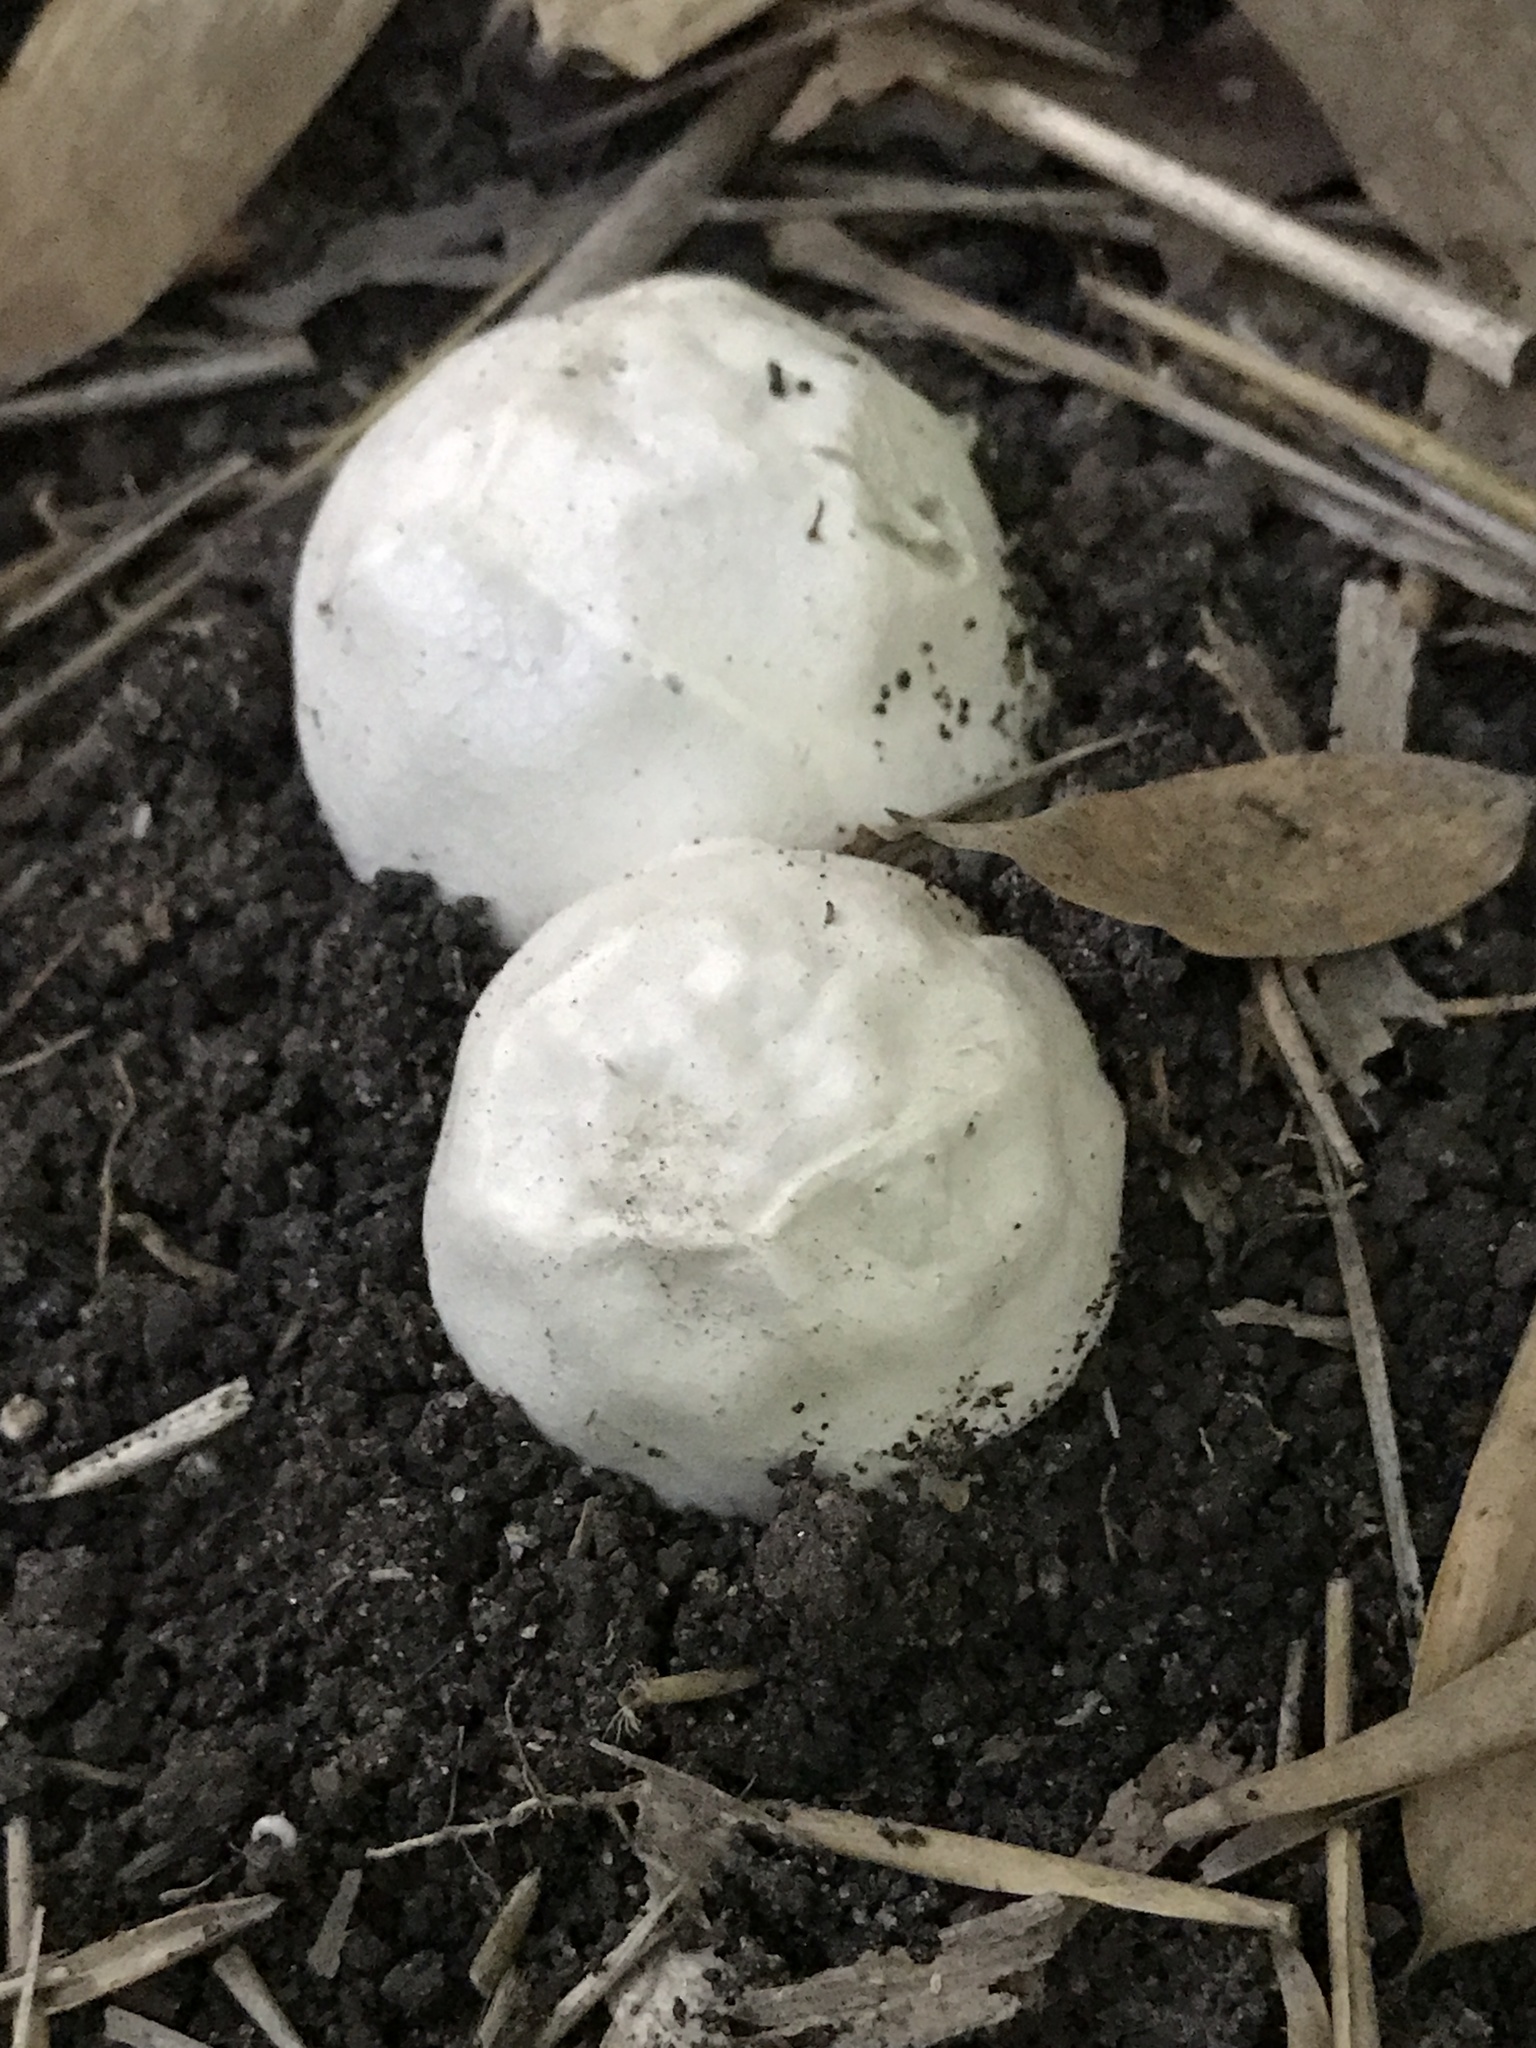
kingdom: Fungi
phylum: Basidiomycota
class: Agaricomycetes
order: Phallales
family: Phallaceae
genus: Lysurus
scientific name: Lysurus periphragmoides
